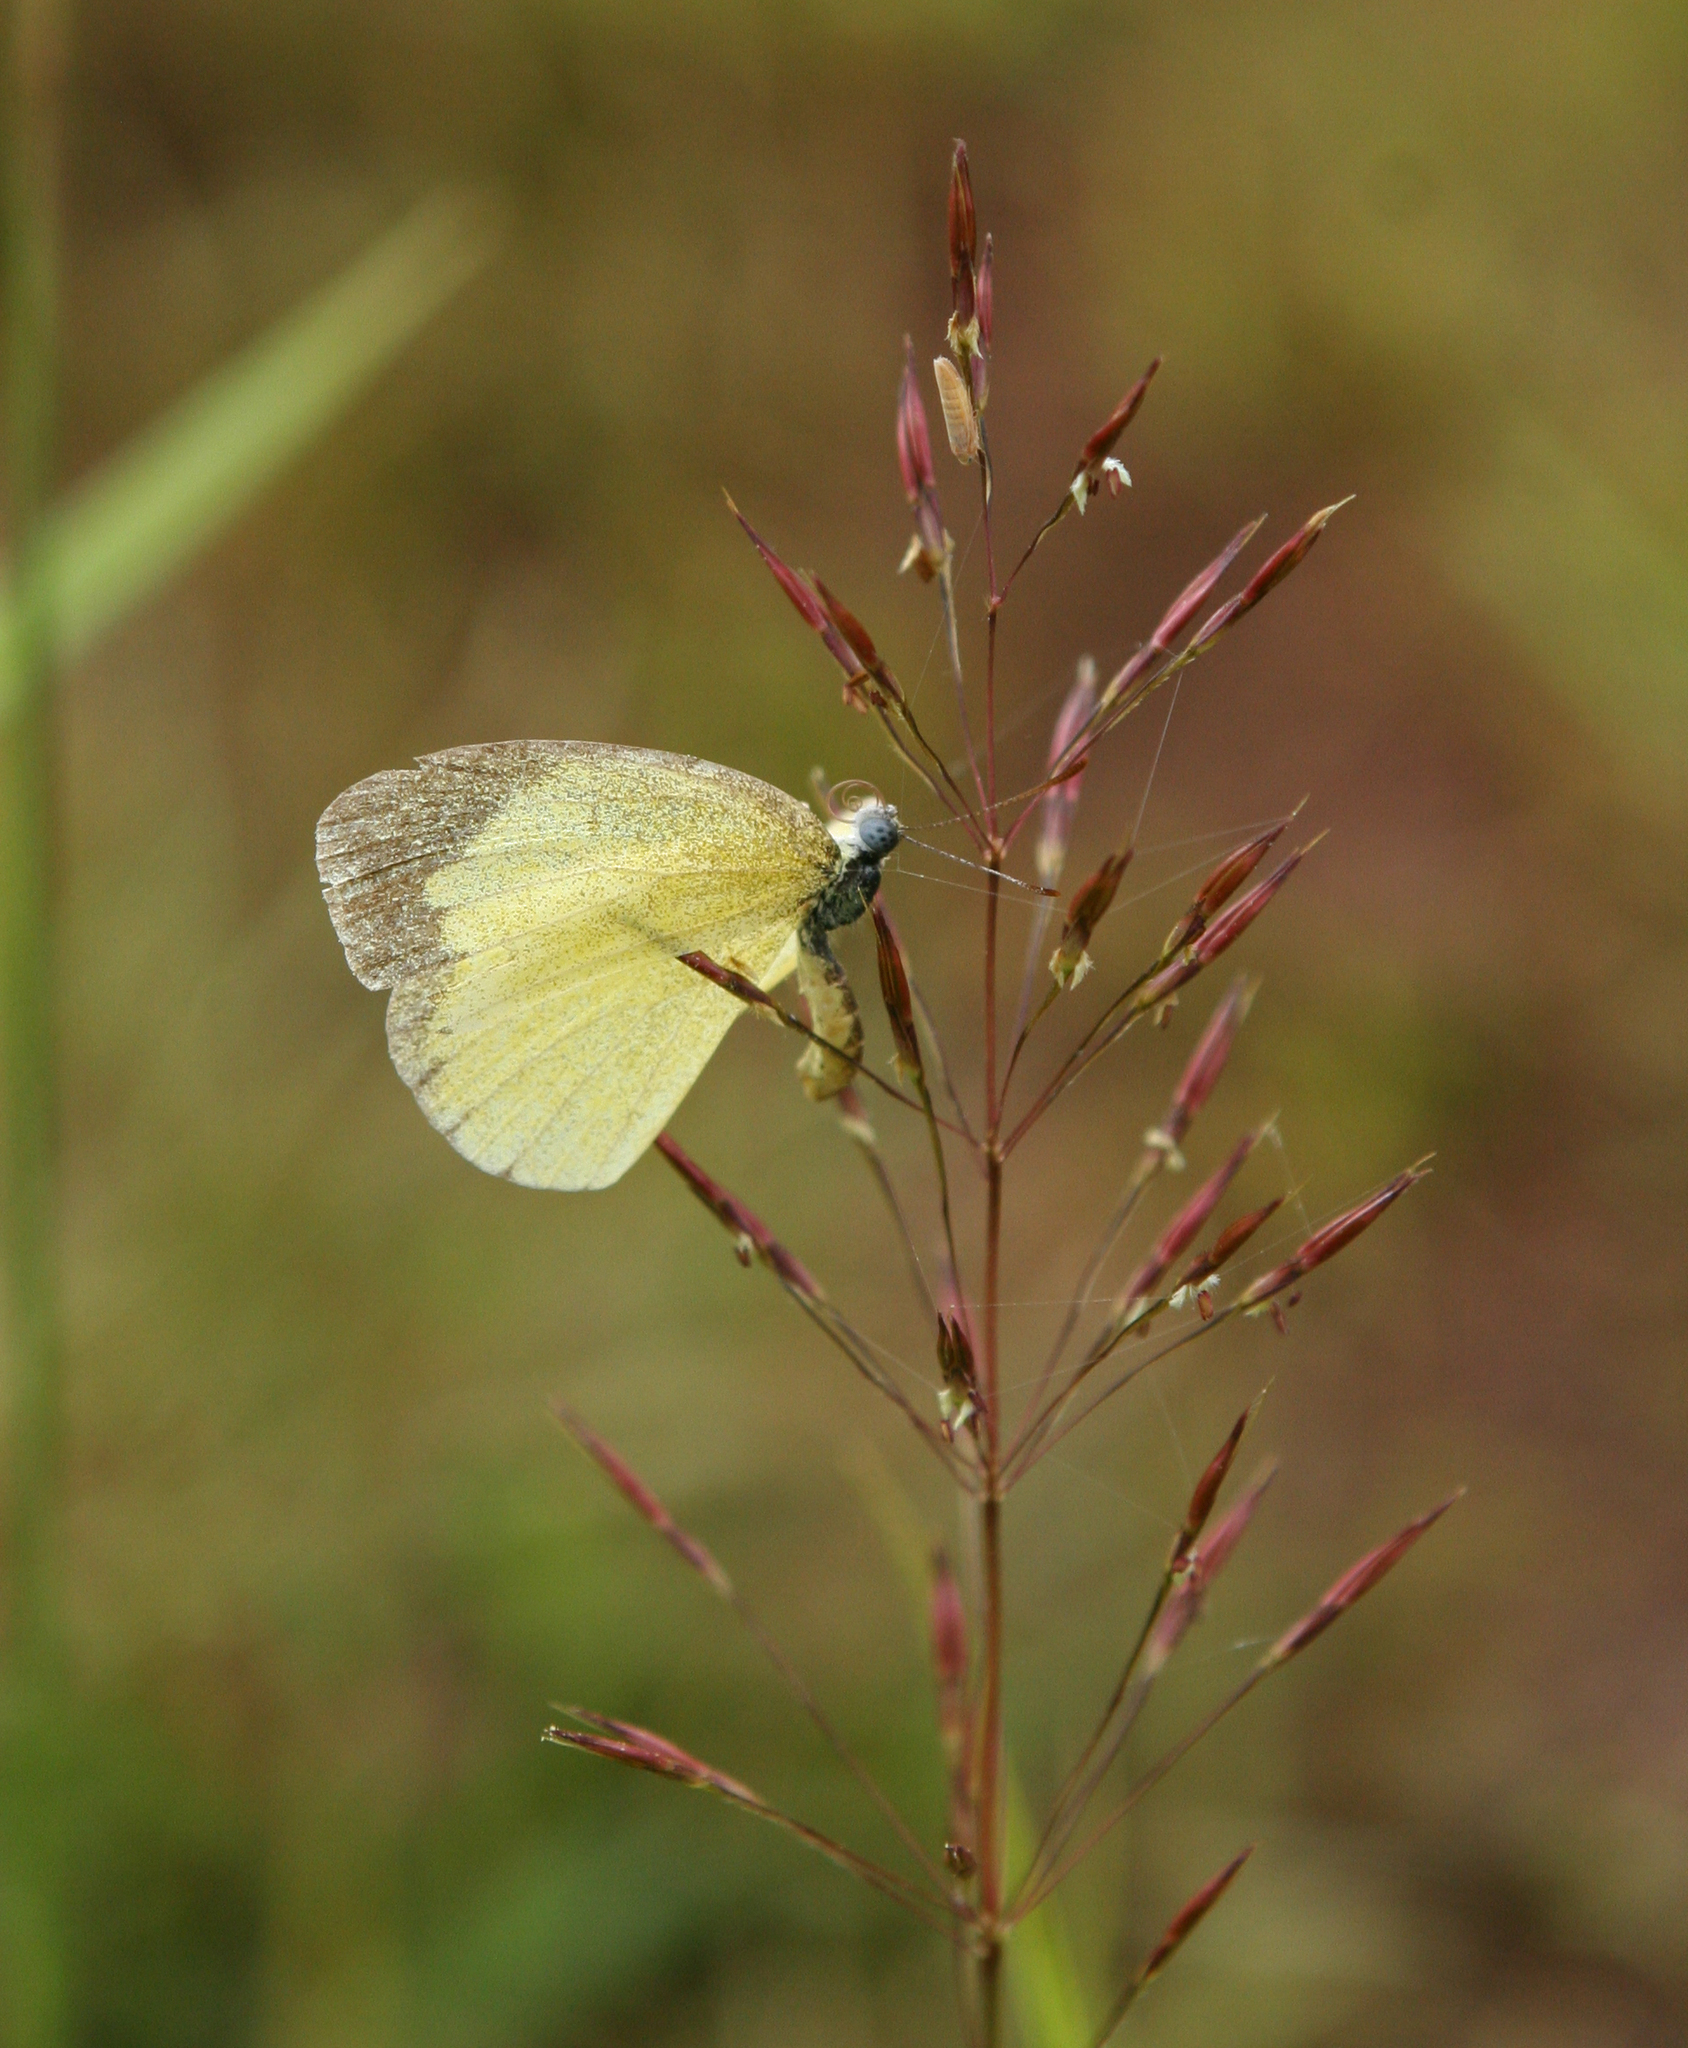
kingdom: Animalia
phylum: Arthropoda
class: Insecta
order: Lepidoptera
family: Pieridae
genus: Eurema
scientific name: Eurema brigitta
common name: Small grass yellow
